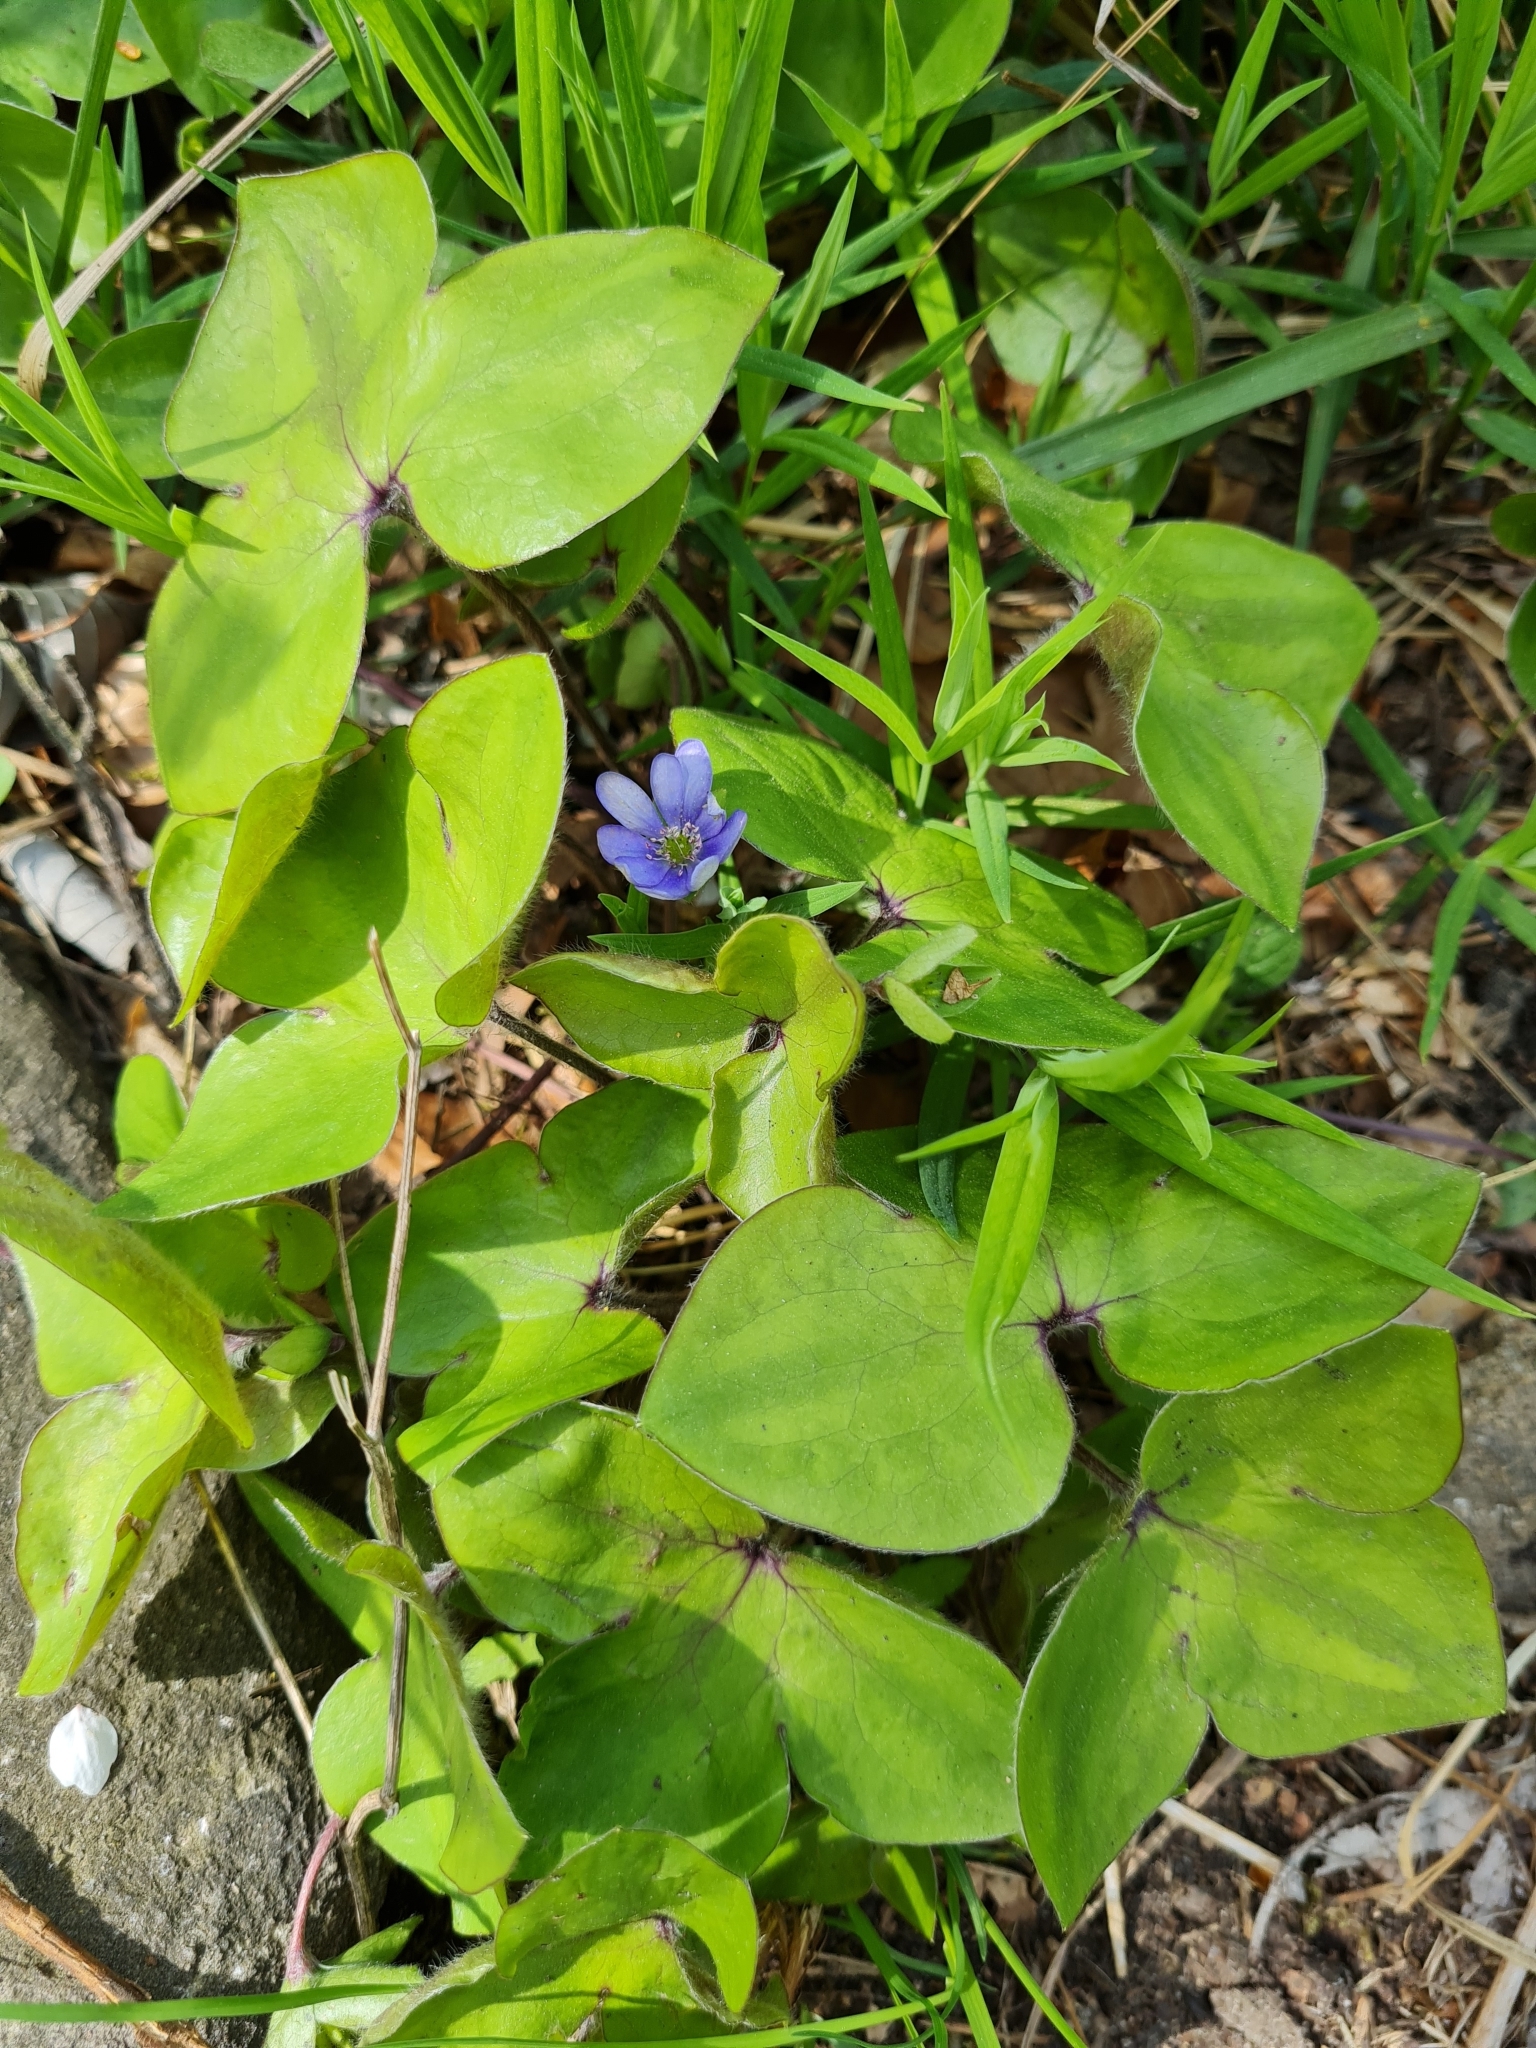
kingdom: Plantae
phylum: Tracheophyta
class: Magnoliopsida
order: Ranunculales
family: Ranunculaceae
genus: Hepatica
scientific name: Hepatica nobilis
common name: Liverleaf
